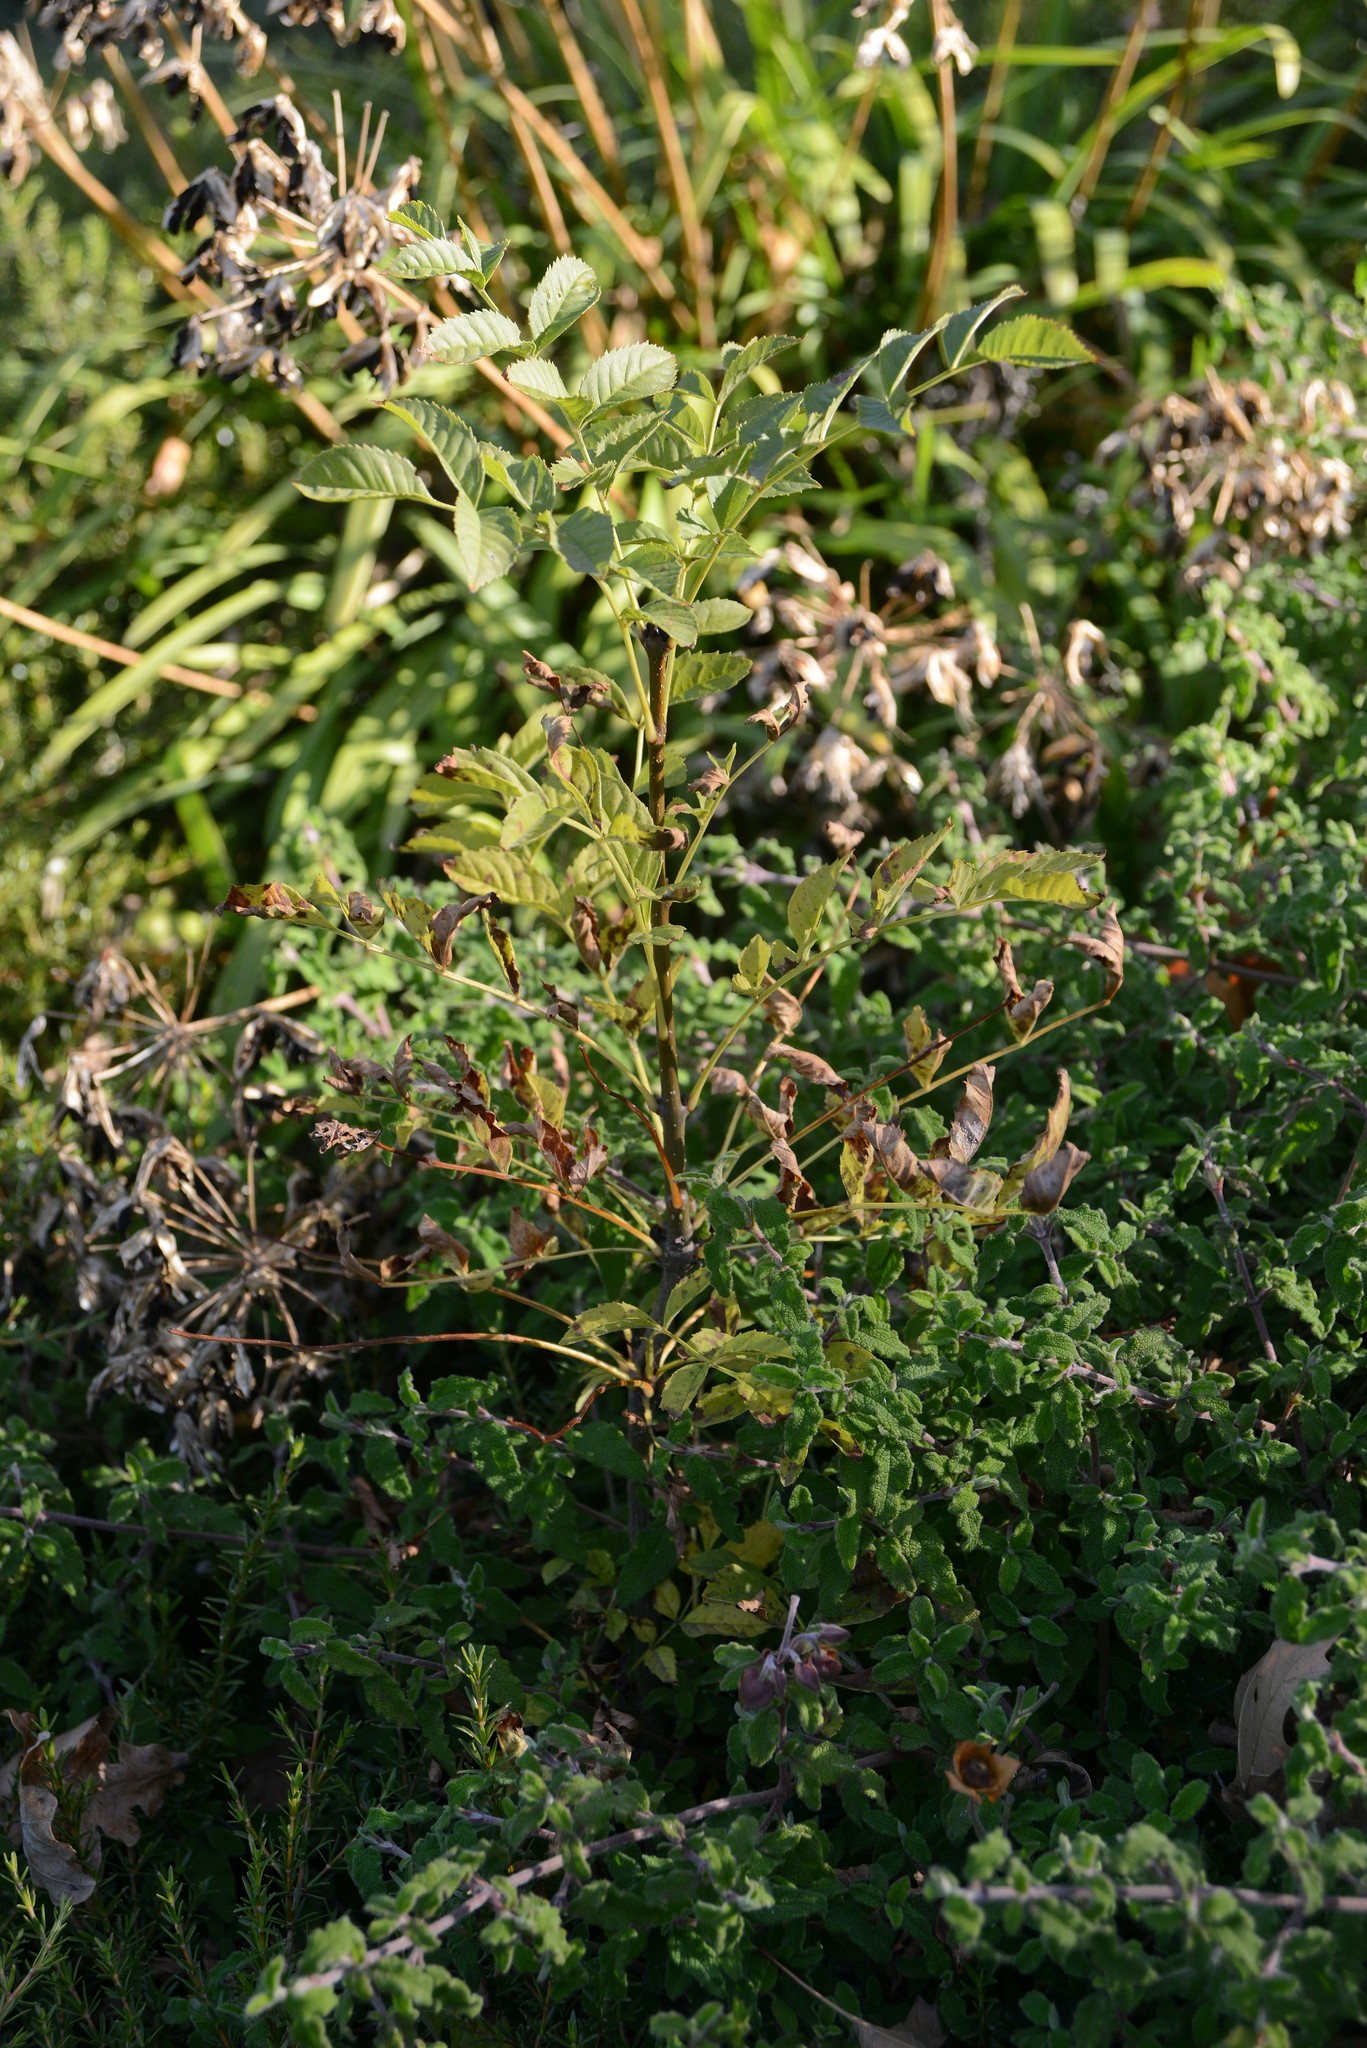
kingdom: Plantae
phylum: Tracheophyta
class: Magnoliopsida
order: Lamiales
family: Oleaceae
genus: Fraxinus
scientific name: Fraxinus excelsior
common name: European ash
